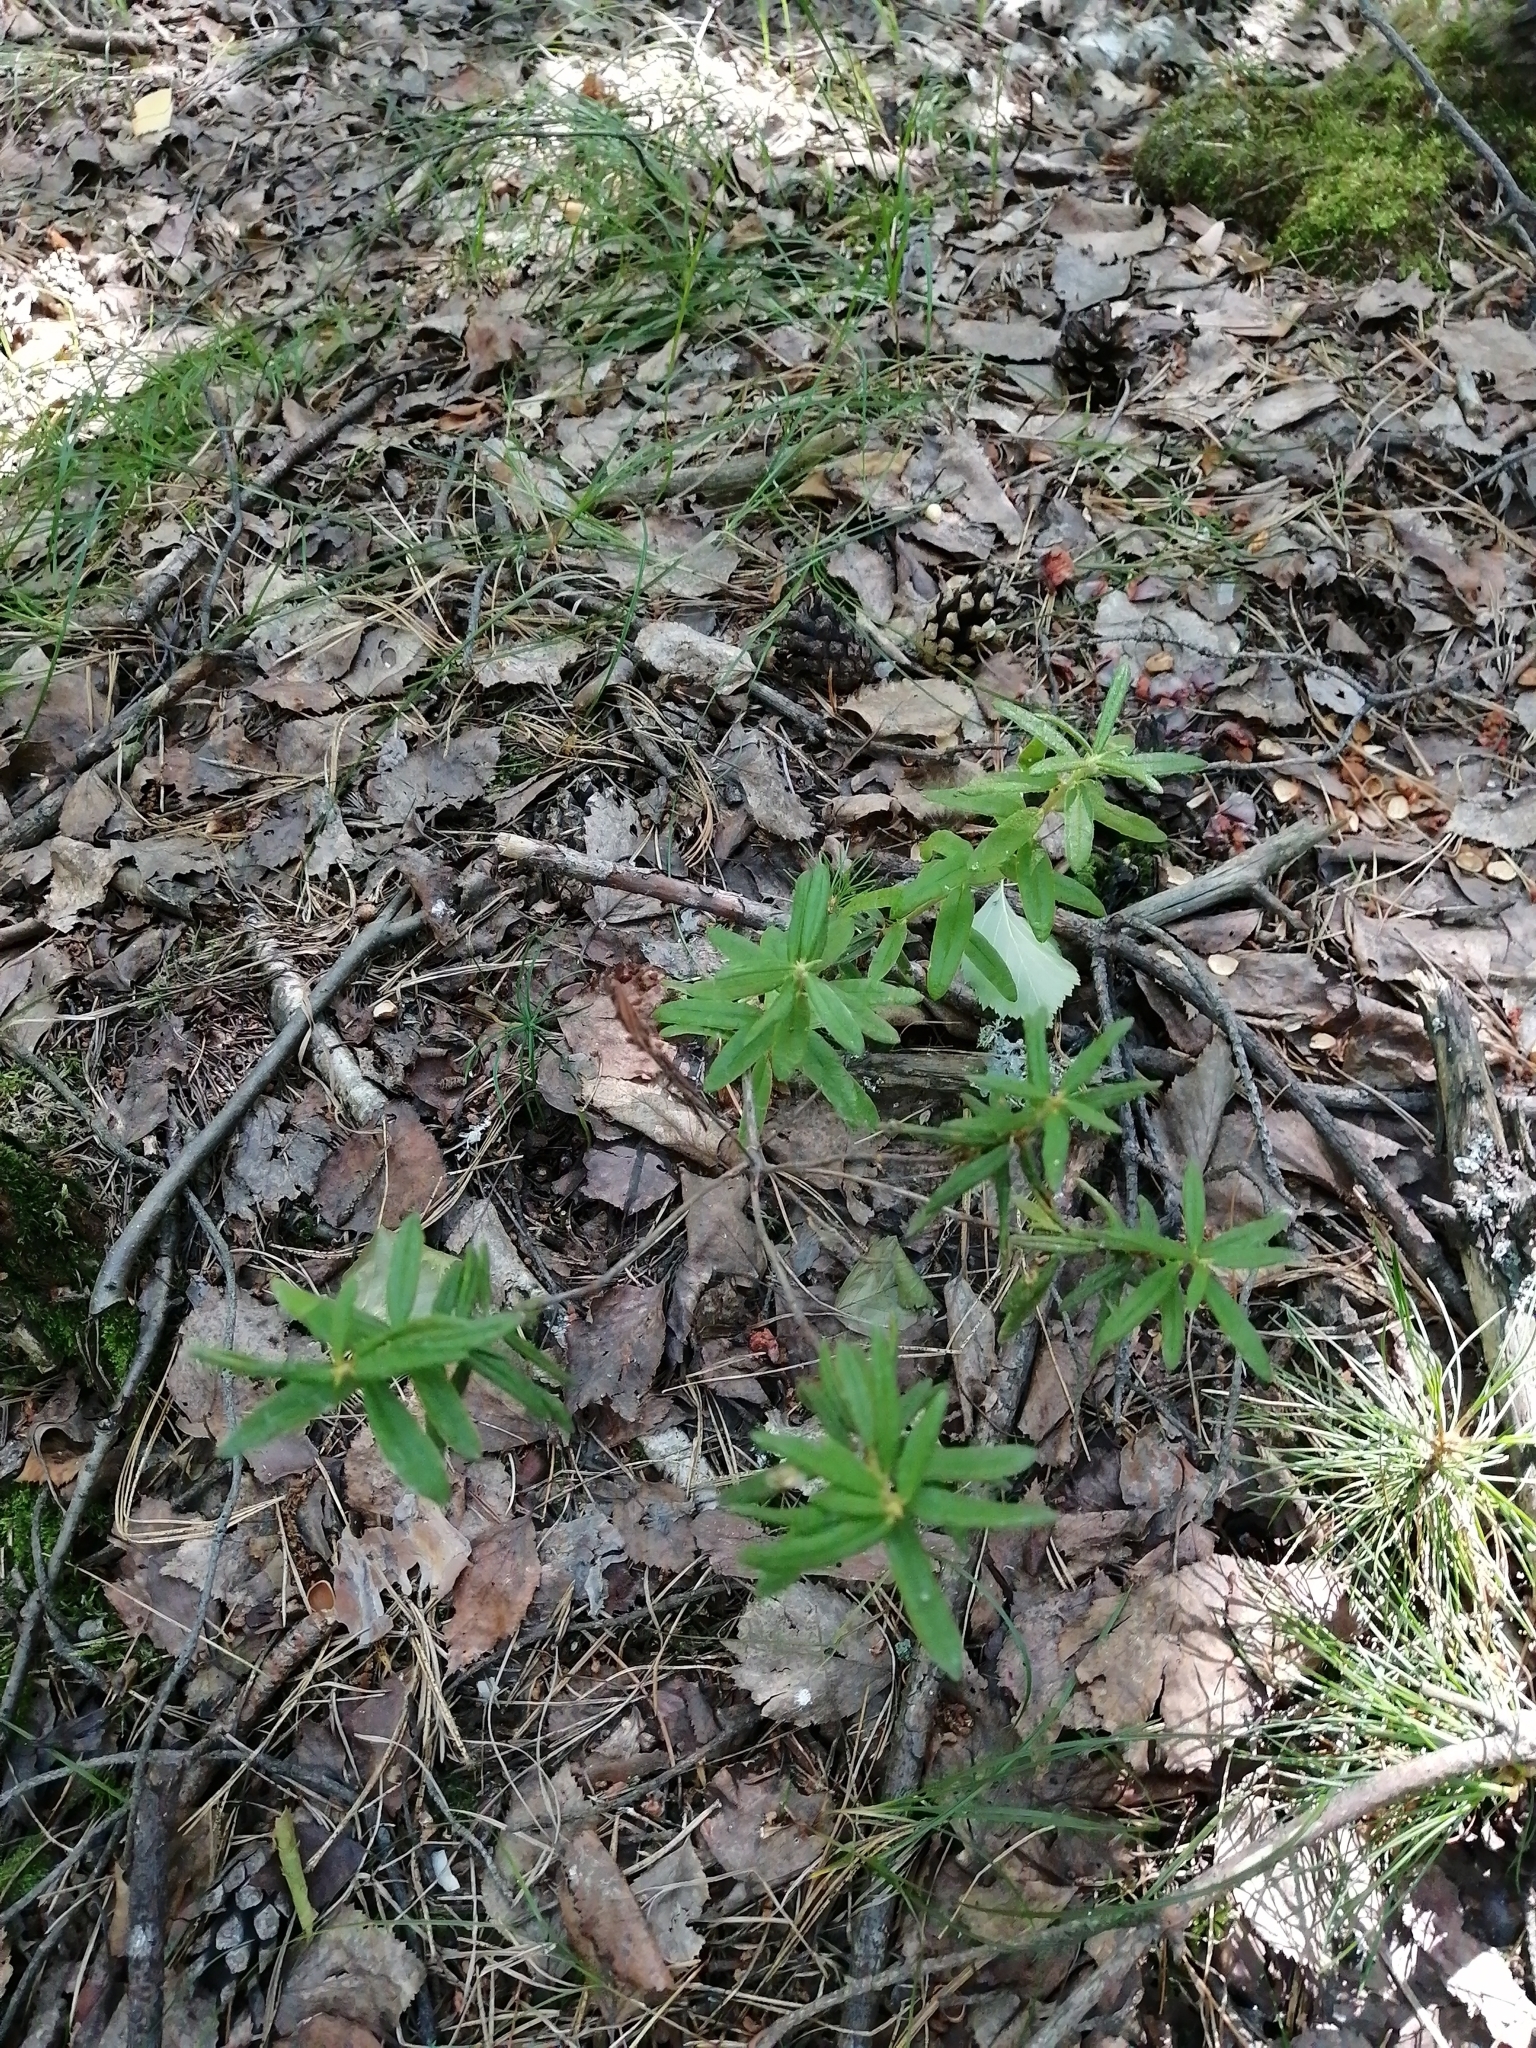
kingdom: Plantae
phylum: Tracheophyta
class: Magnoliopsida
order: Ericales
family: Ericaceae
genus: Rhododendron
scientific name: Rhododendron tomentosum
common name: Marsh labrador tea
